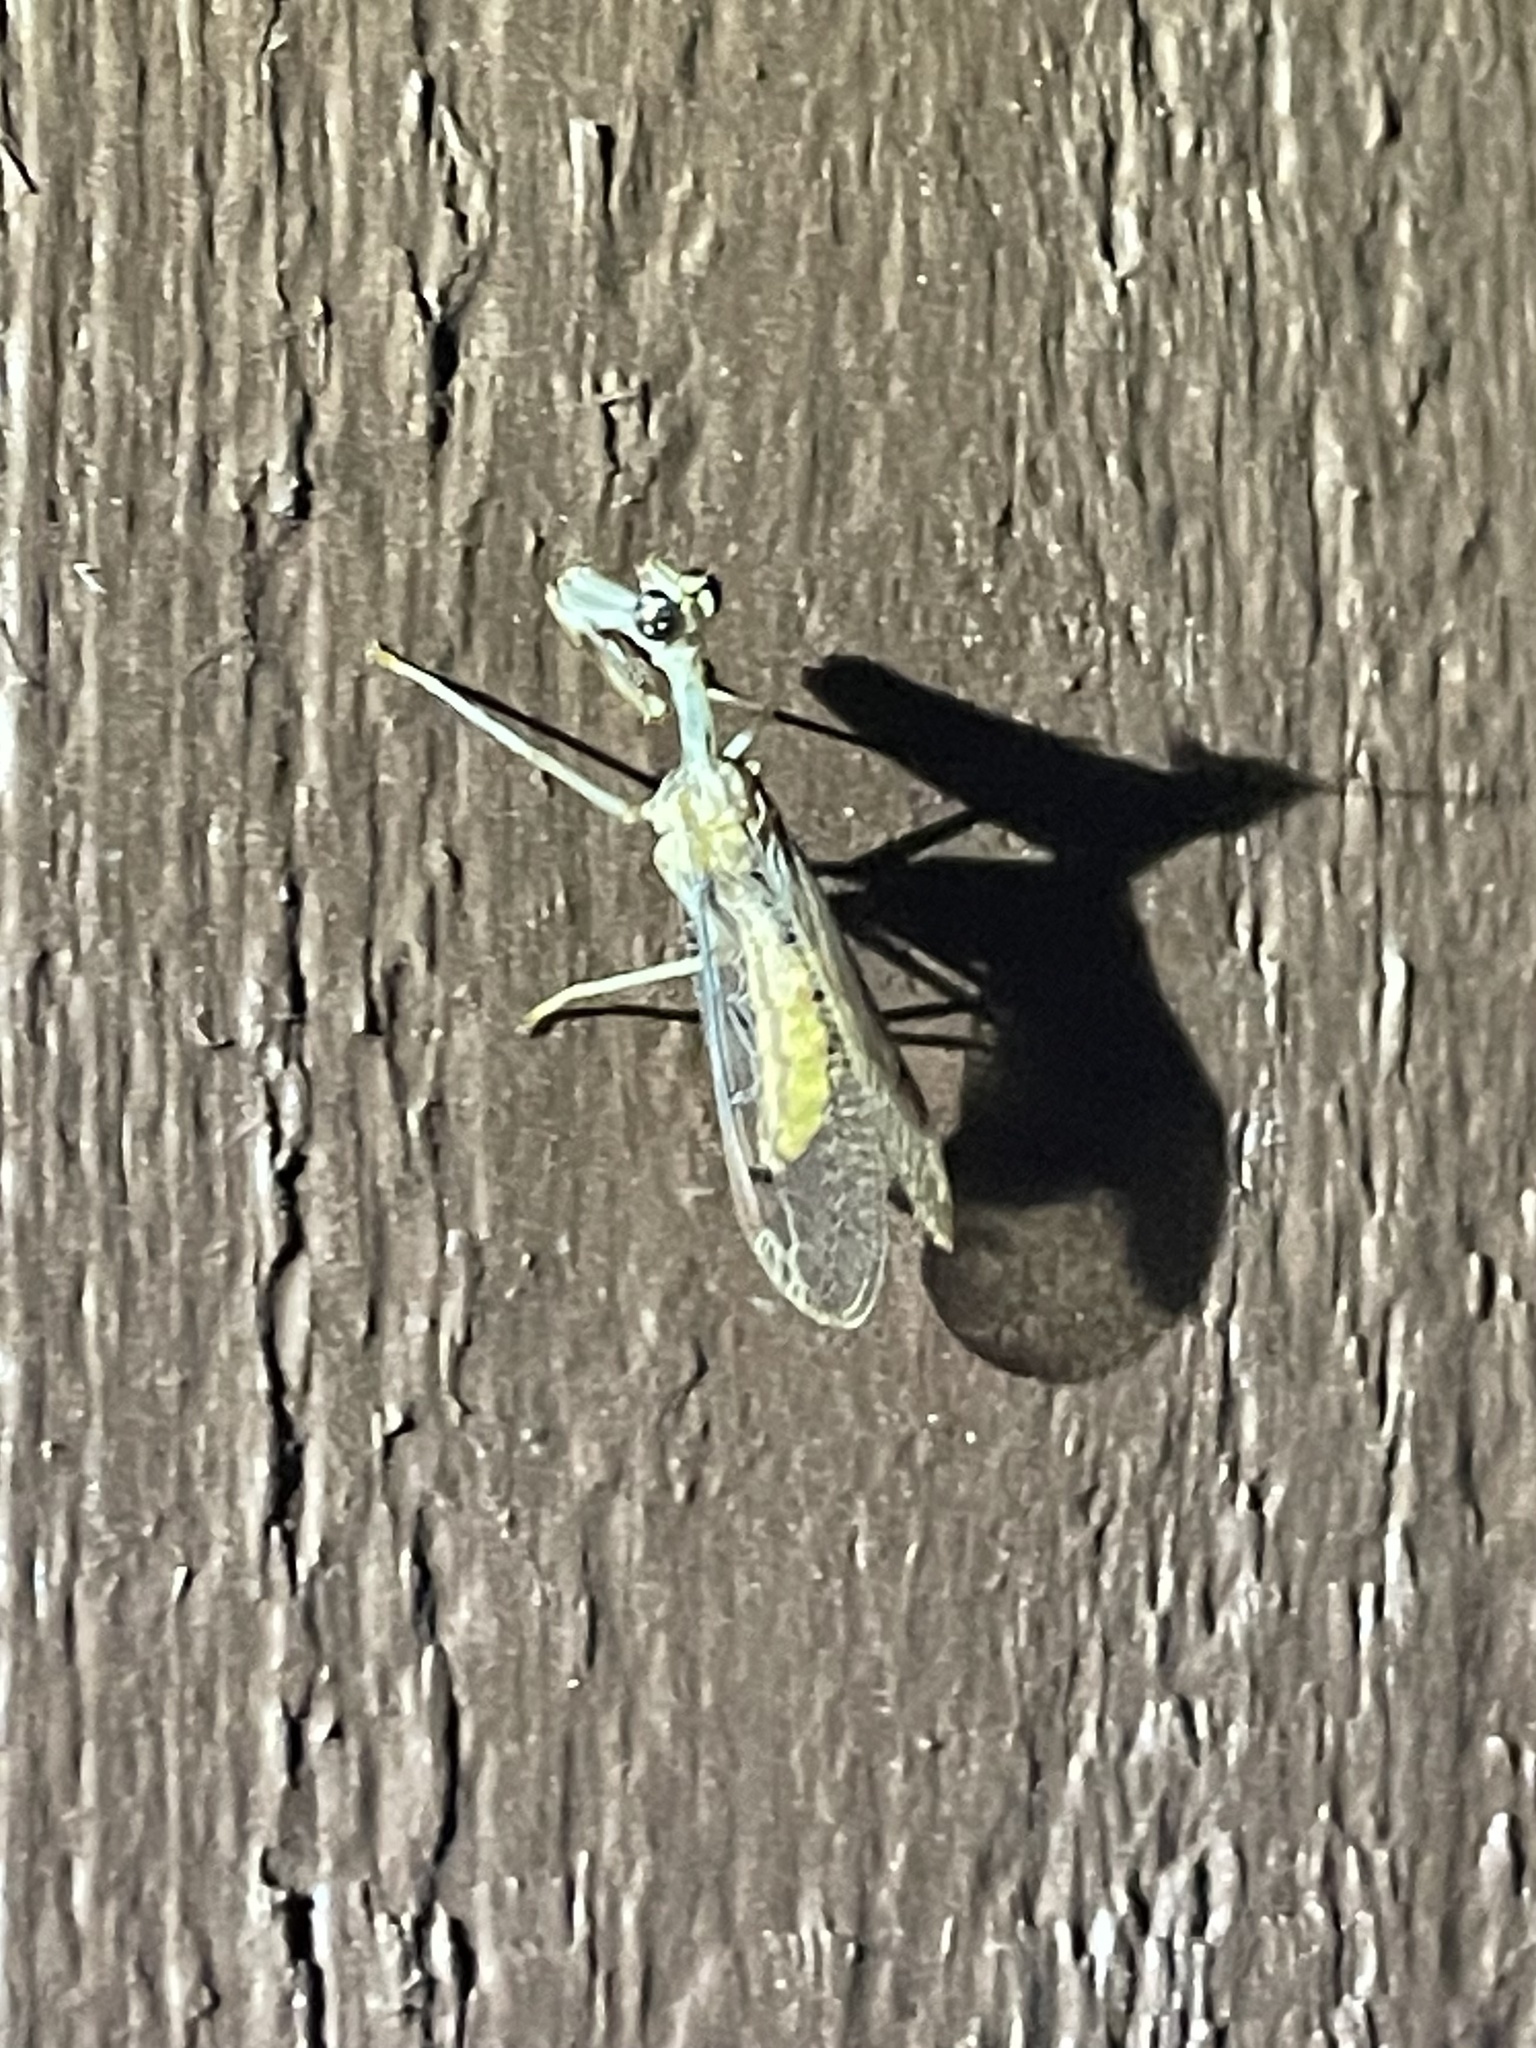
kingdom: Animalia
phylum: Arthropoda
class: Insecta
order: Neuroptera
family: Mantispidae
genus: Zeugomantispa
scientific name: Zeugomantispa minuta
